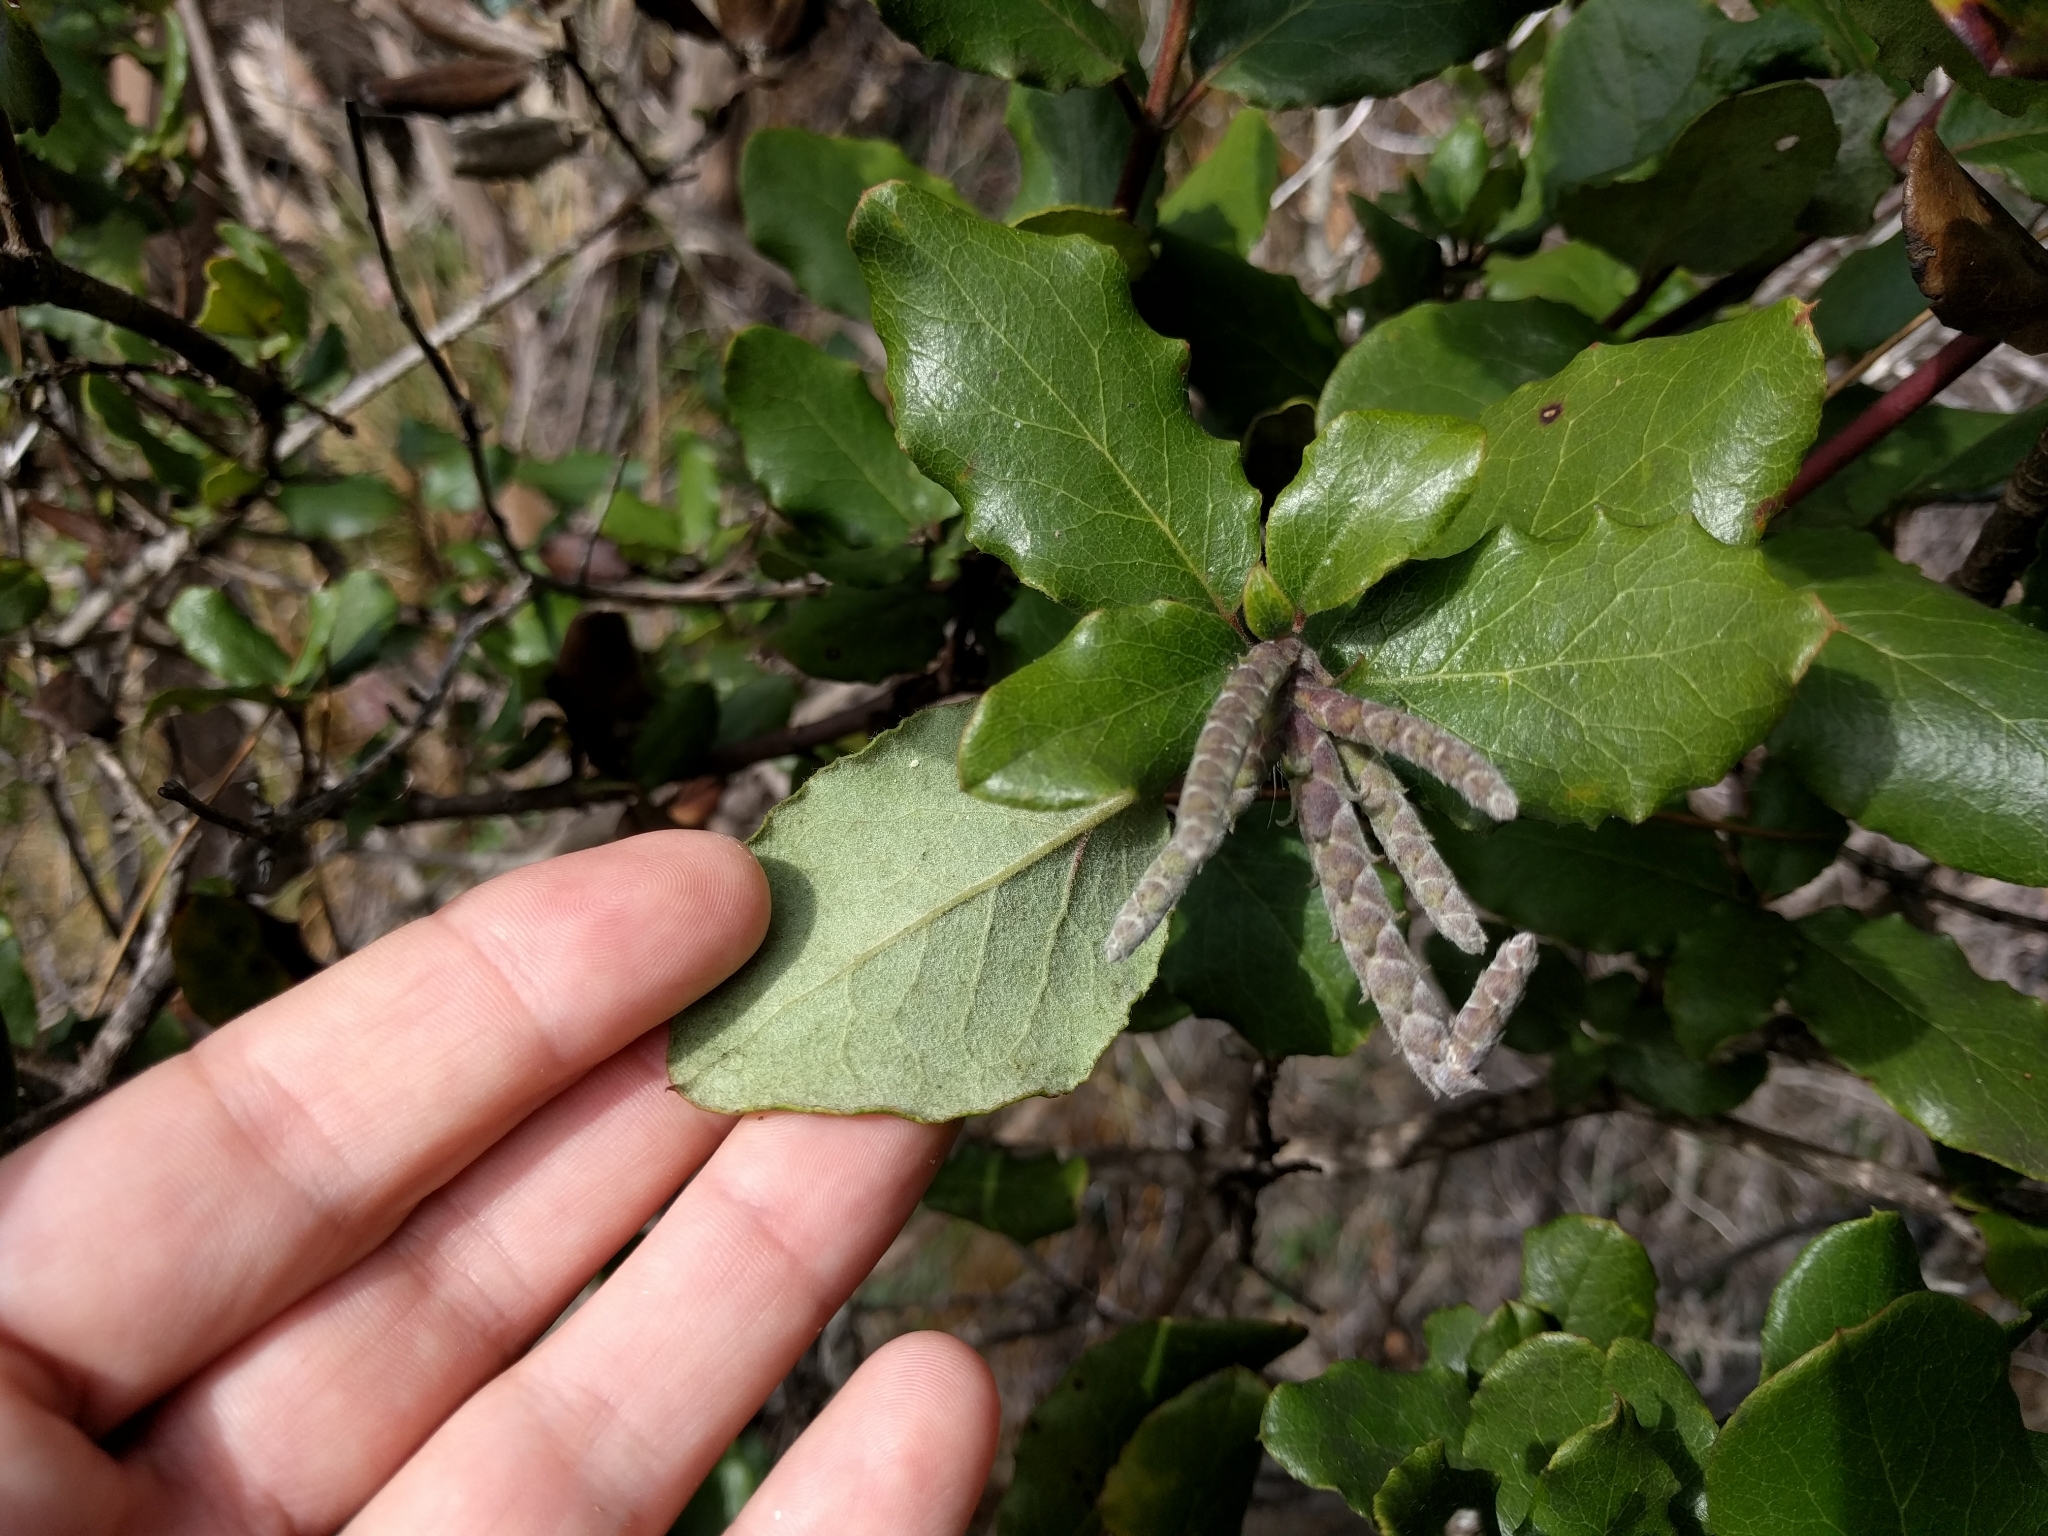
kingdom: Plantae
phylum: Tracheophyta
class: Magnoliopsida
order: Garryales
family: Garryaceae
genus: Garrya
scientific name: Garrya elliptica
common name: Silk-tassel
